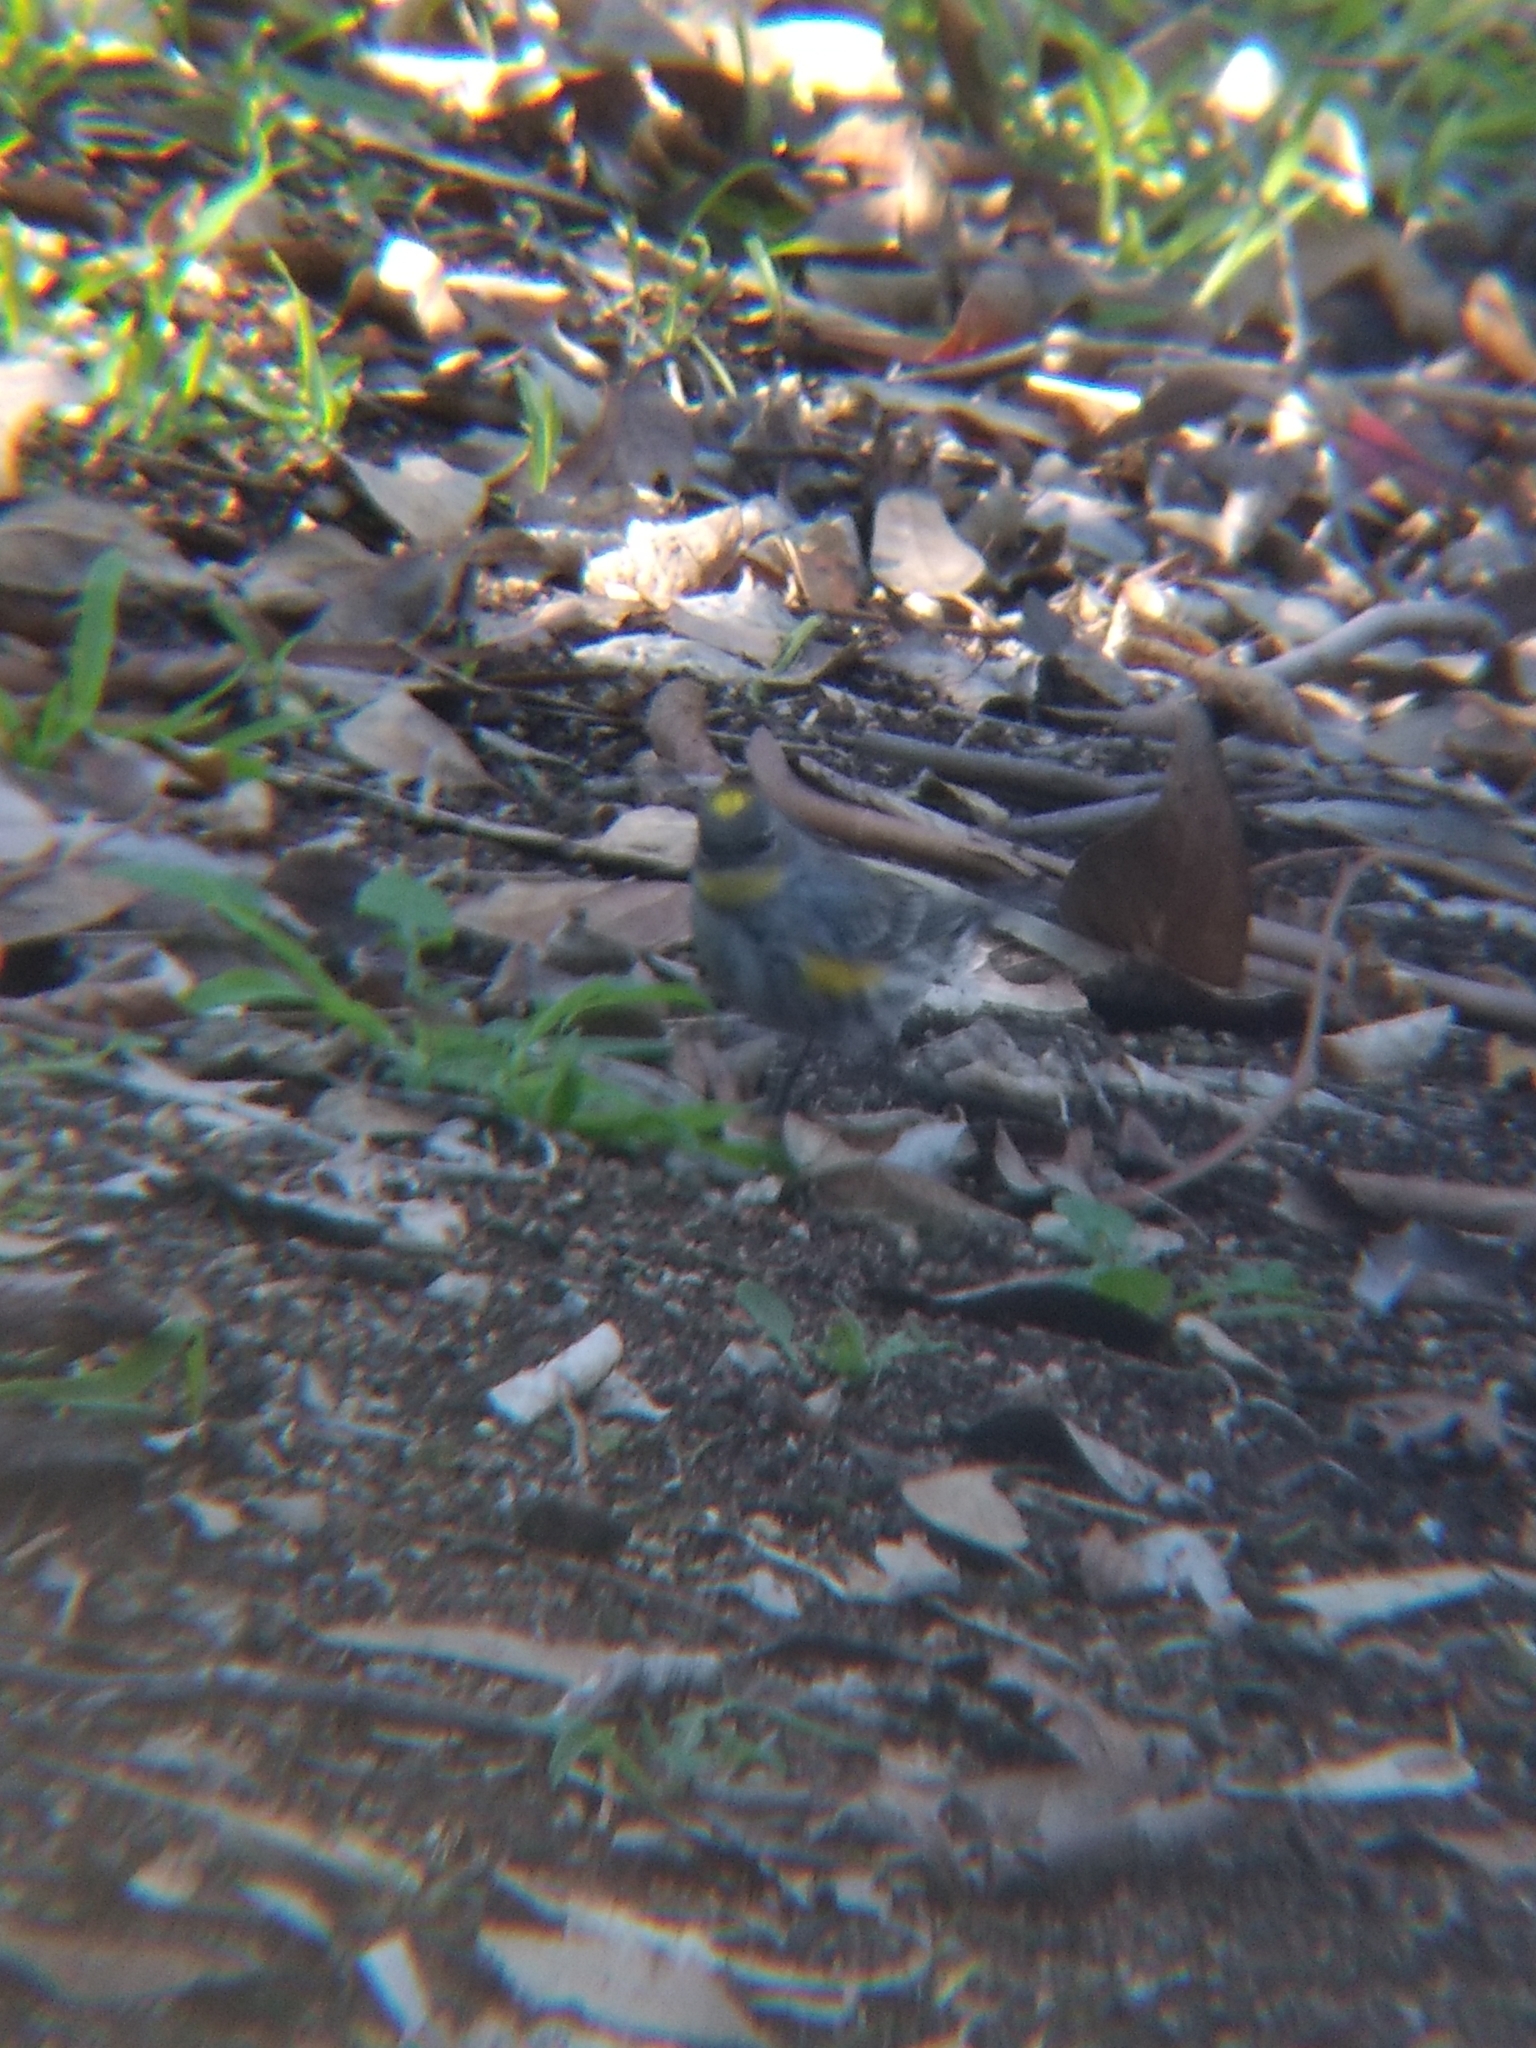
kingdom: Animalia
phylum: Chordata
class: Aves
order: Passeriformes
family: Parulidae
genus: Setophaga
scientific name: Setophaga coronata
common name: Myrtle warbler
